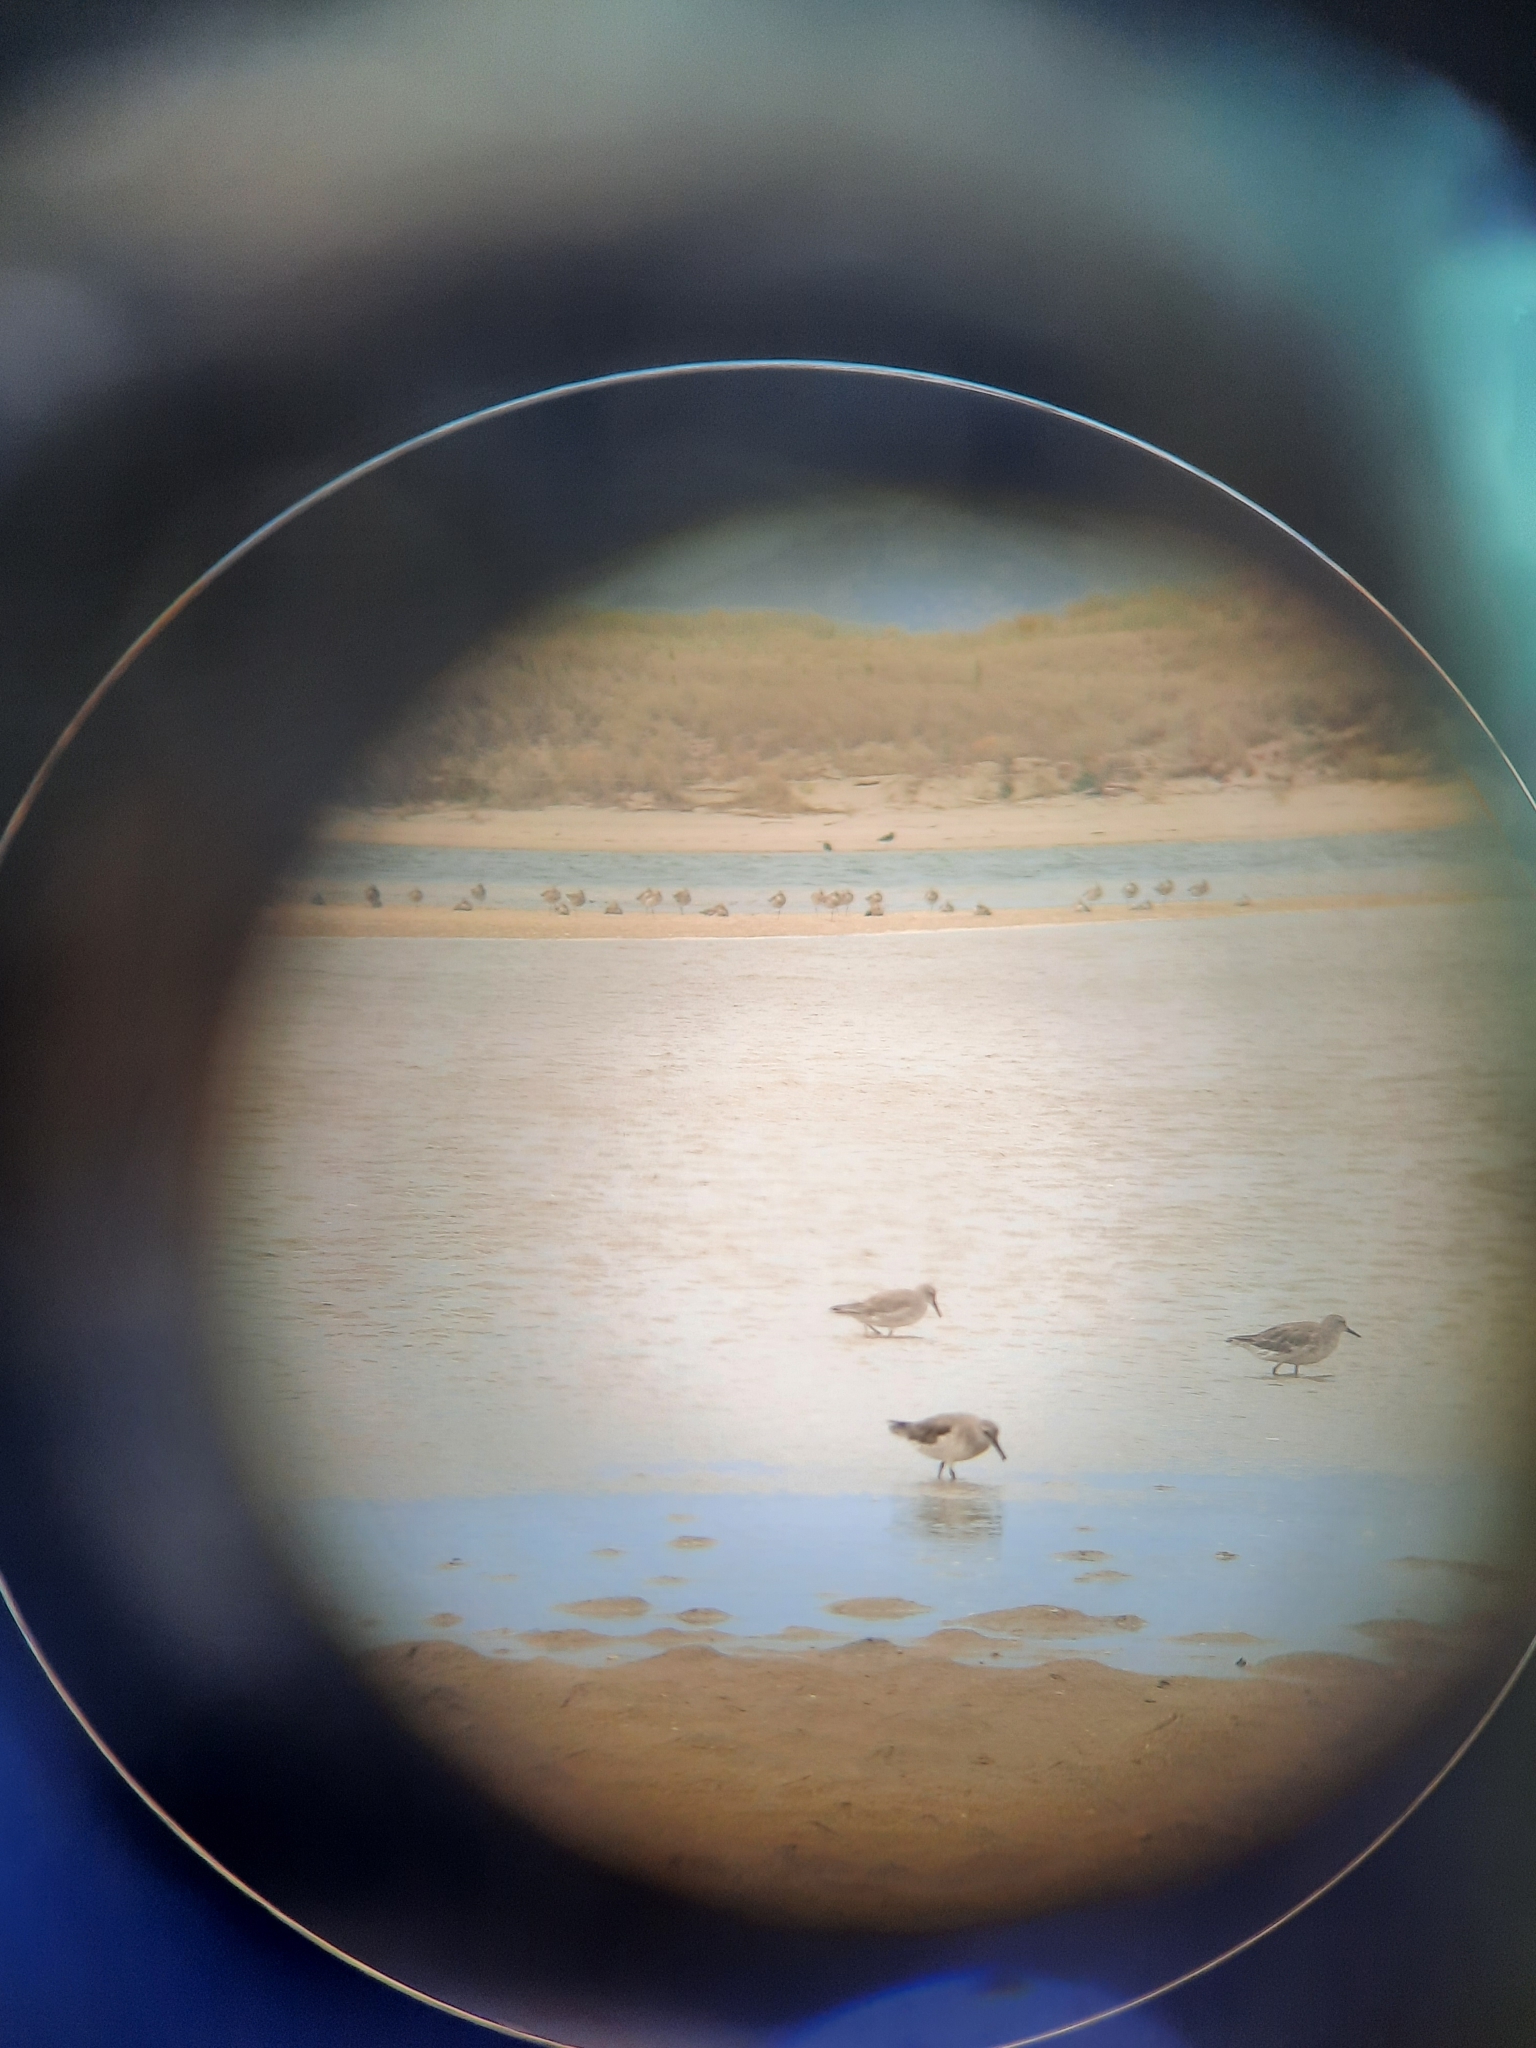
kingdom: Animalia
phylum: Chordata
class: Aves
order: Charadriiformes
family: Scolopacidae
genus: Calidris
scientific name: Calidris canutus
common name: Red knot
